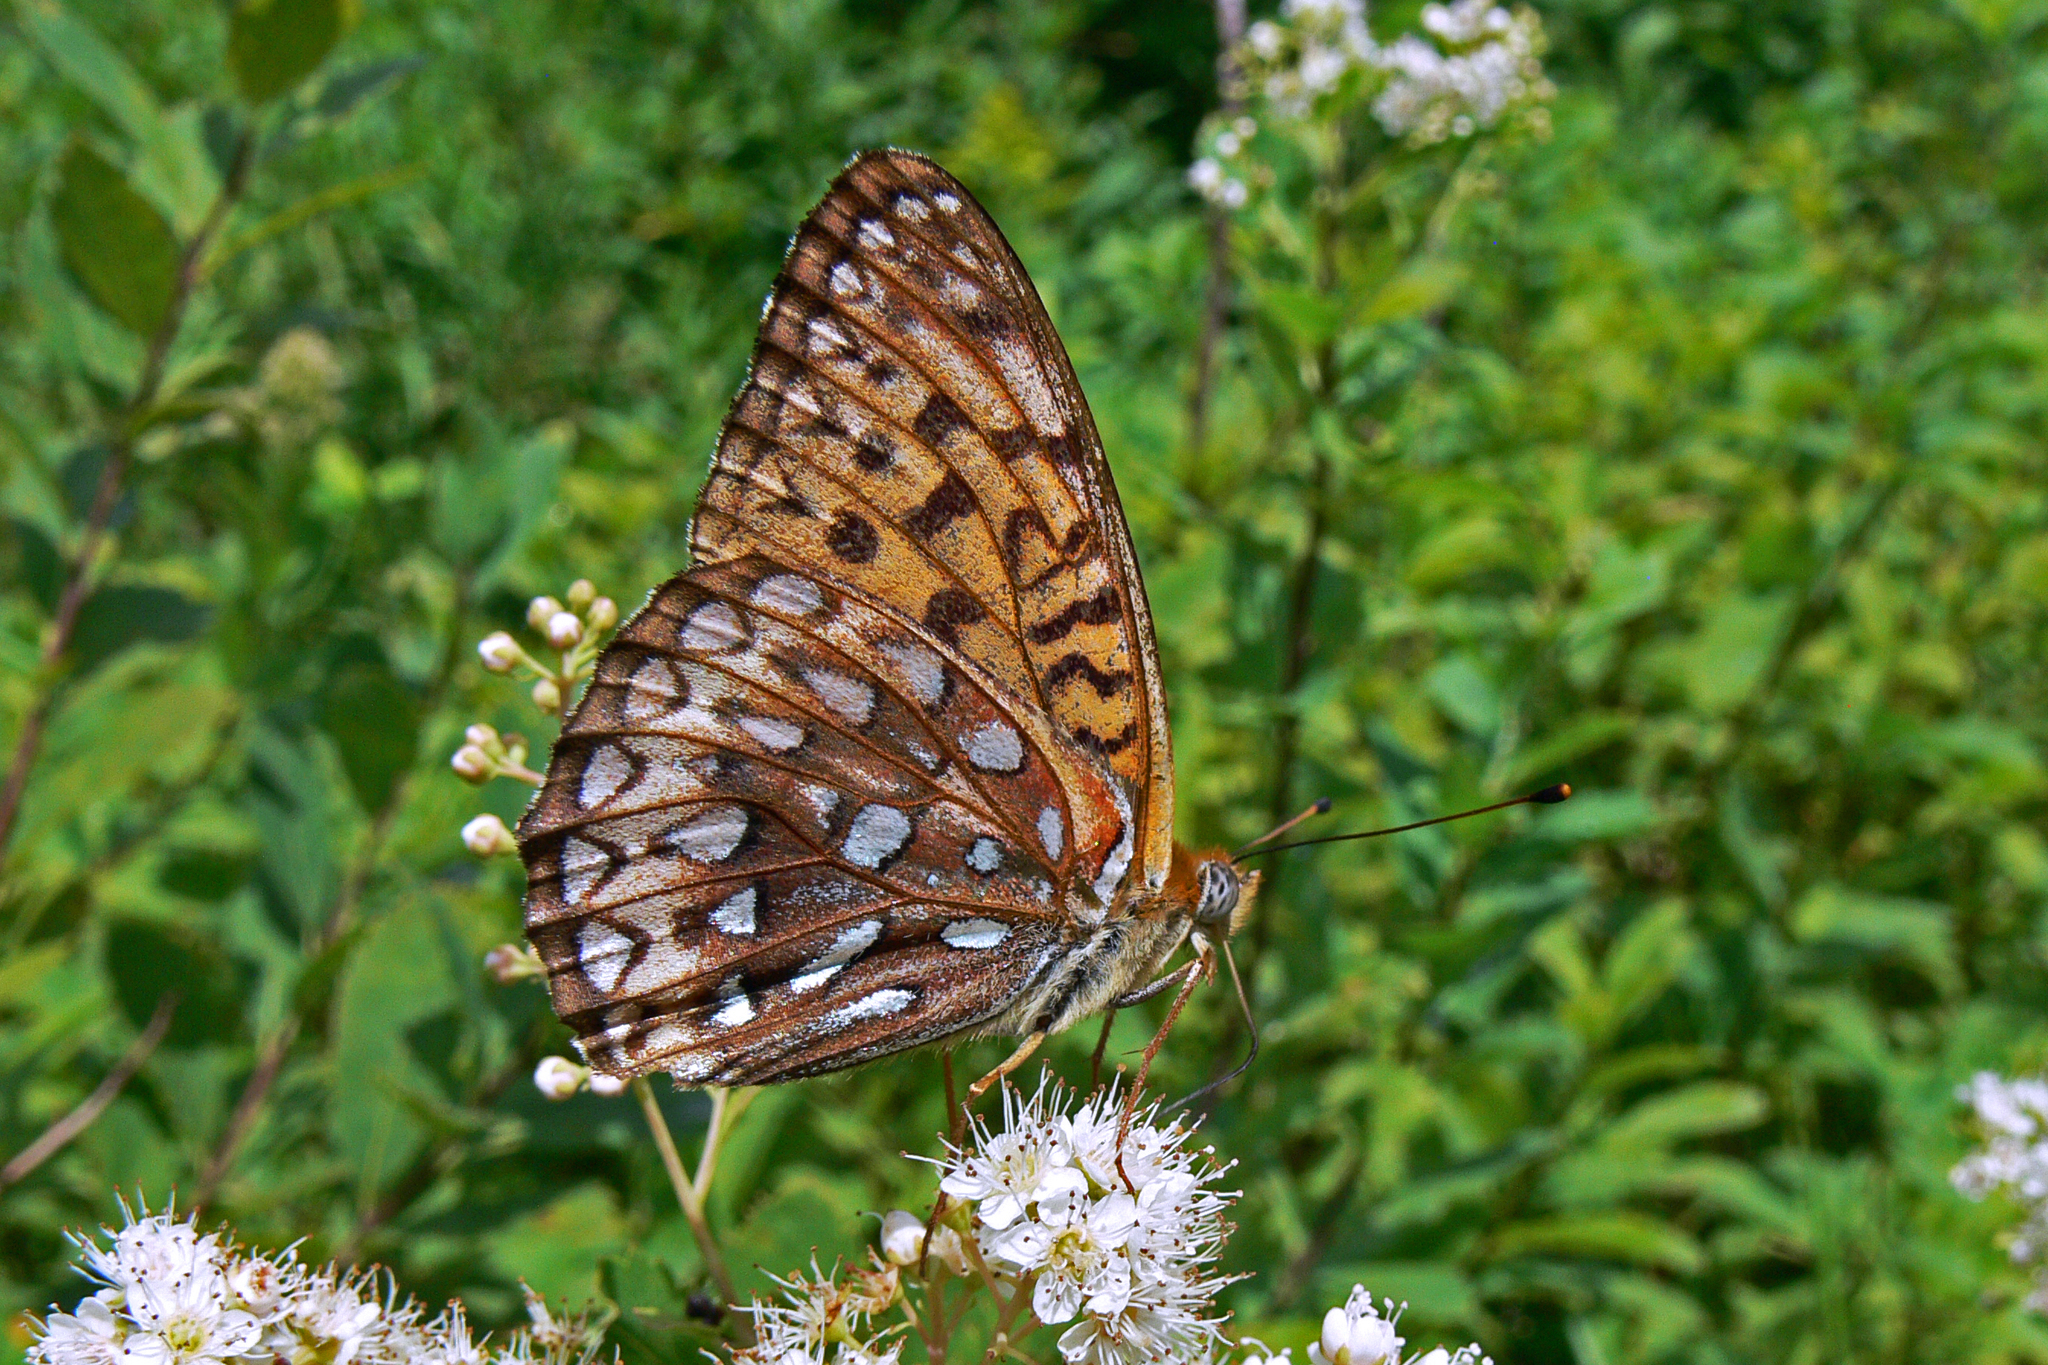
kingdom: Animalia
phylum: Arthropoda
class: Insecta
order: Lepidoptera
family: Nymphalidae
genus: Speyeria
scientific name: Speyeria atlantis
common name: Atlantis fritillary
